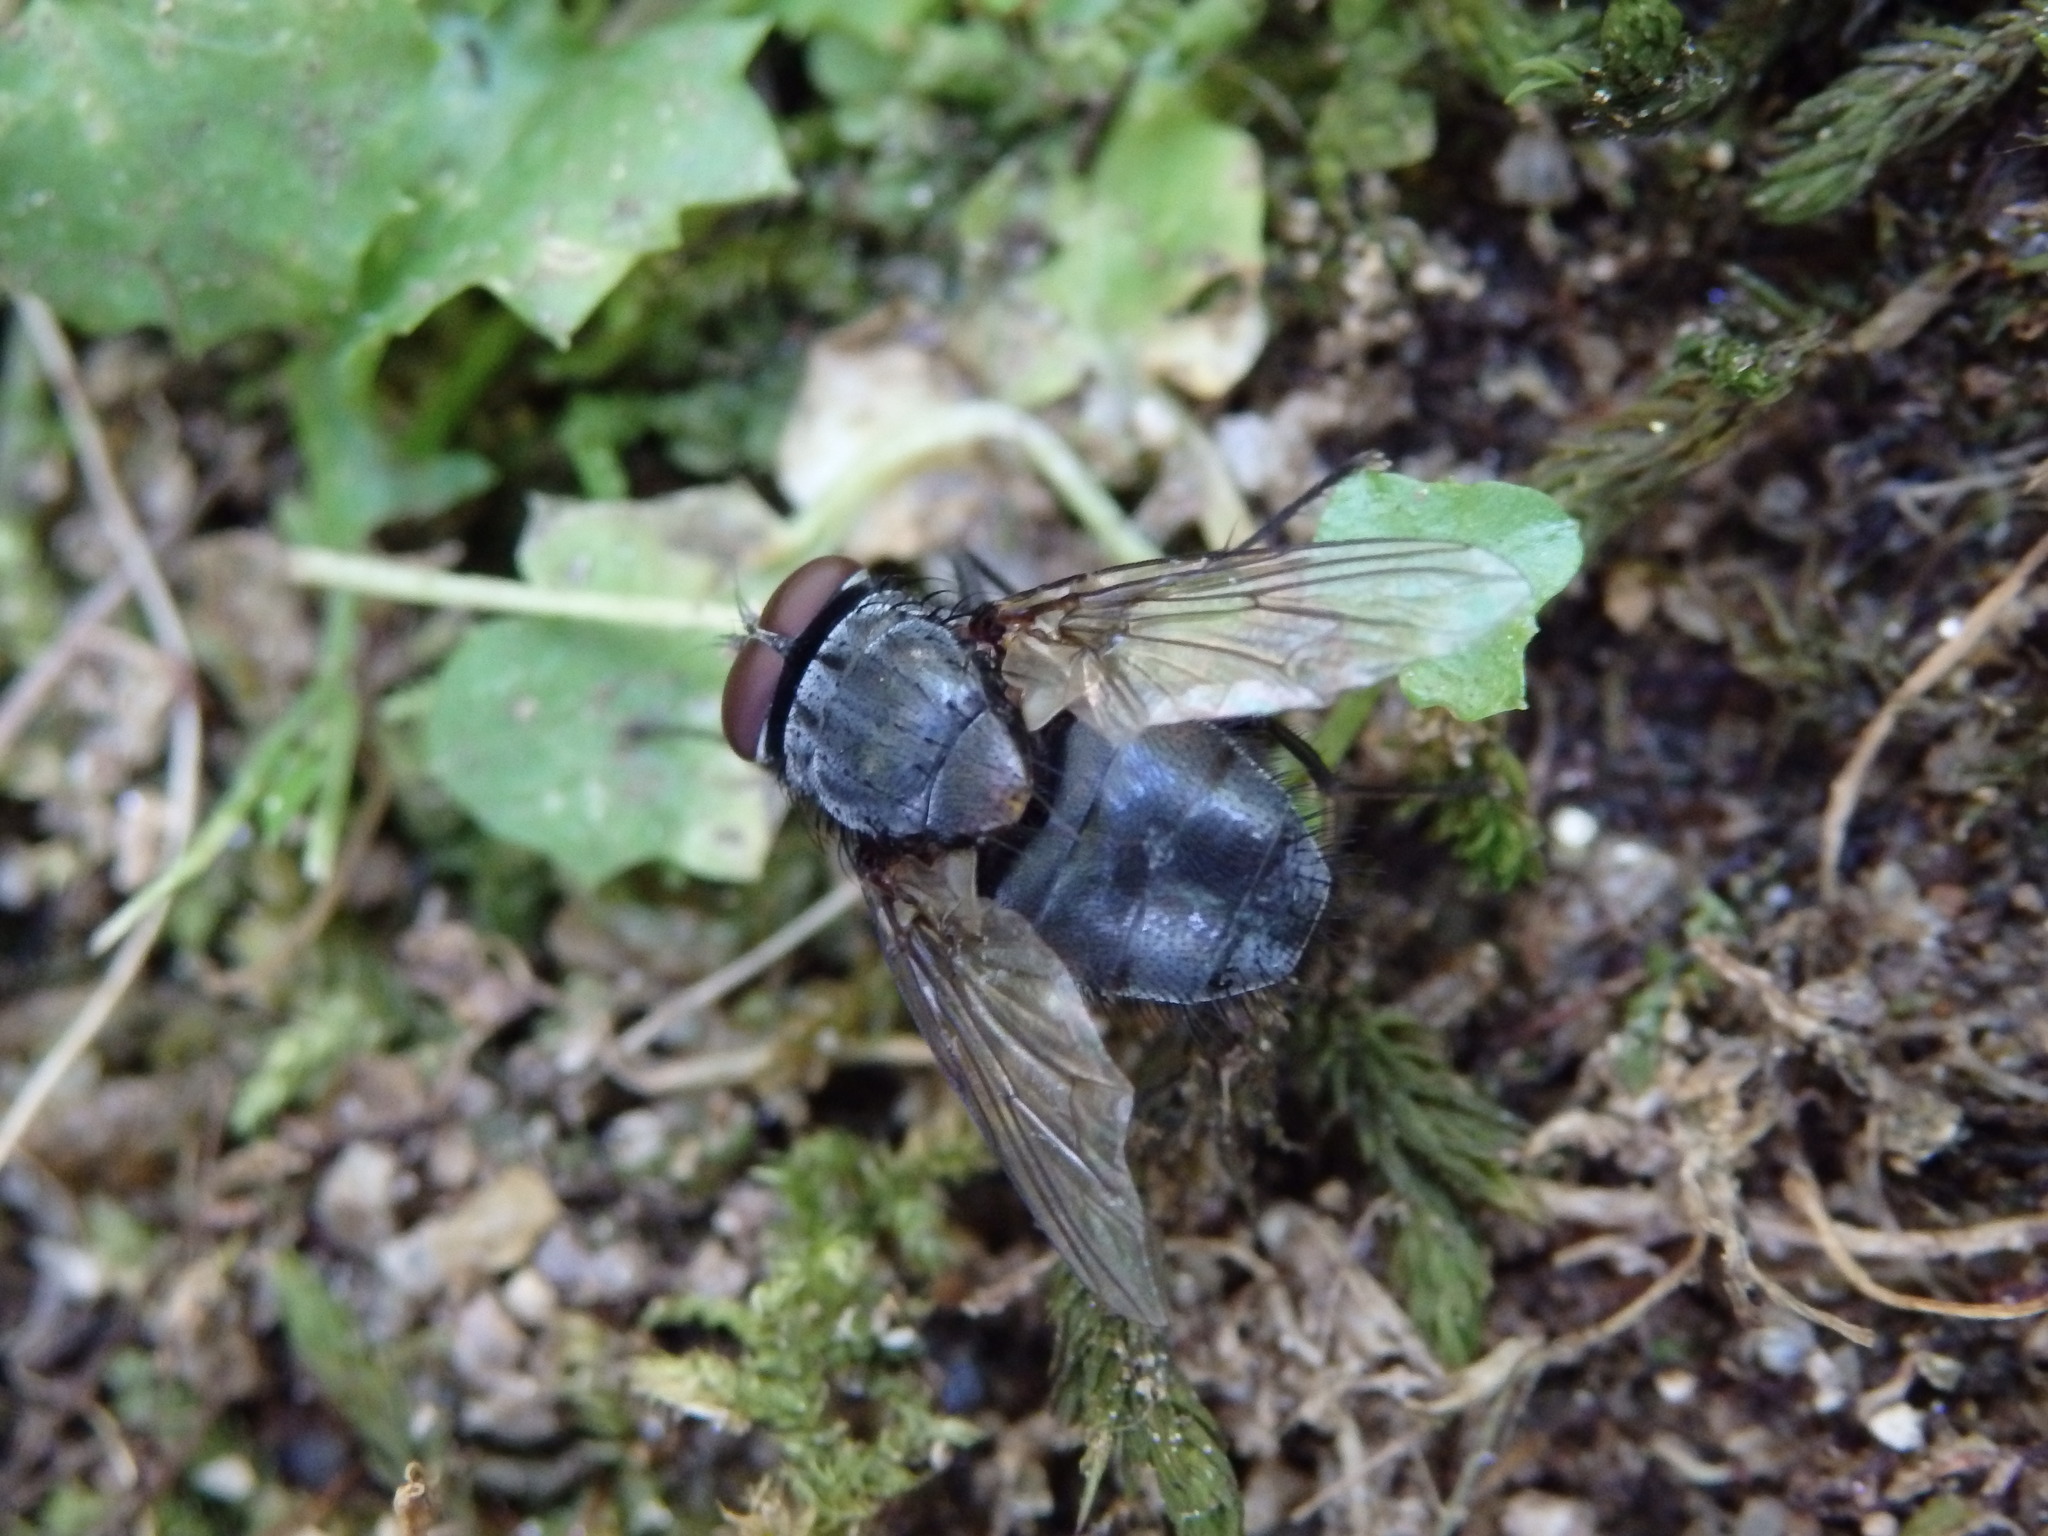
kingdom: Animalia
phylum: Arthropoda
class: Insecta
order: Diptera
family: Calliphoridae
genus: Calliphora
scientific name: Calliphora vicina
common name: Common blow flie
